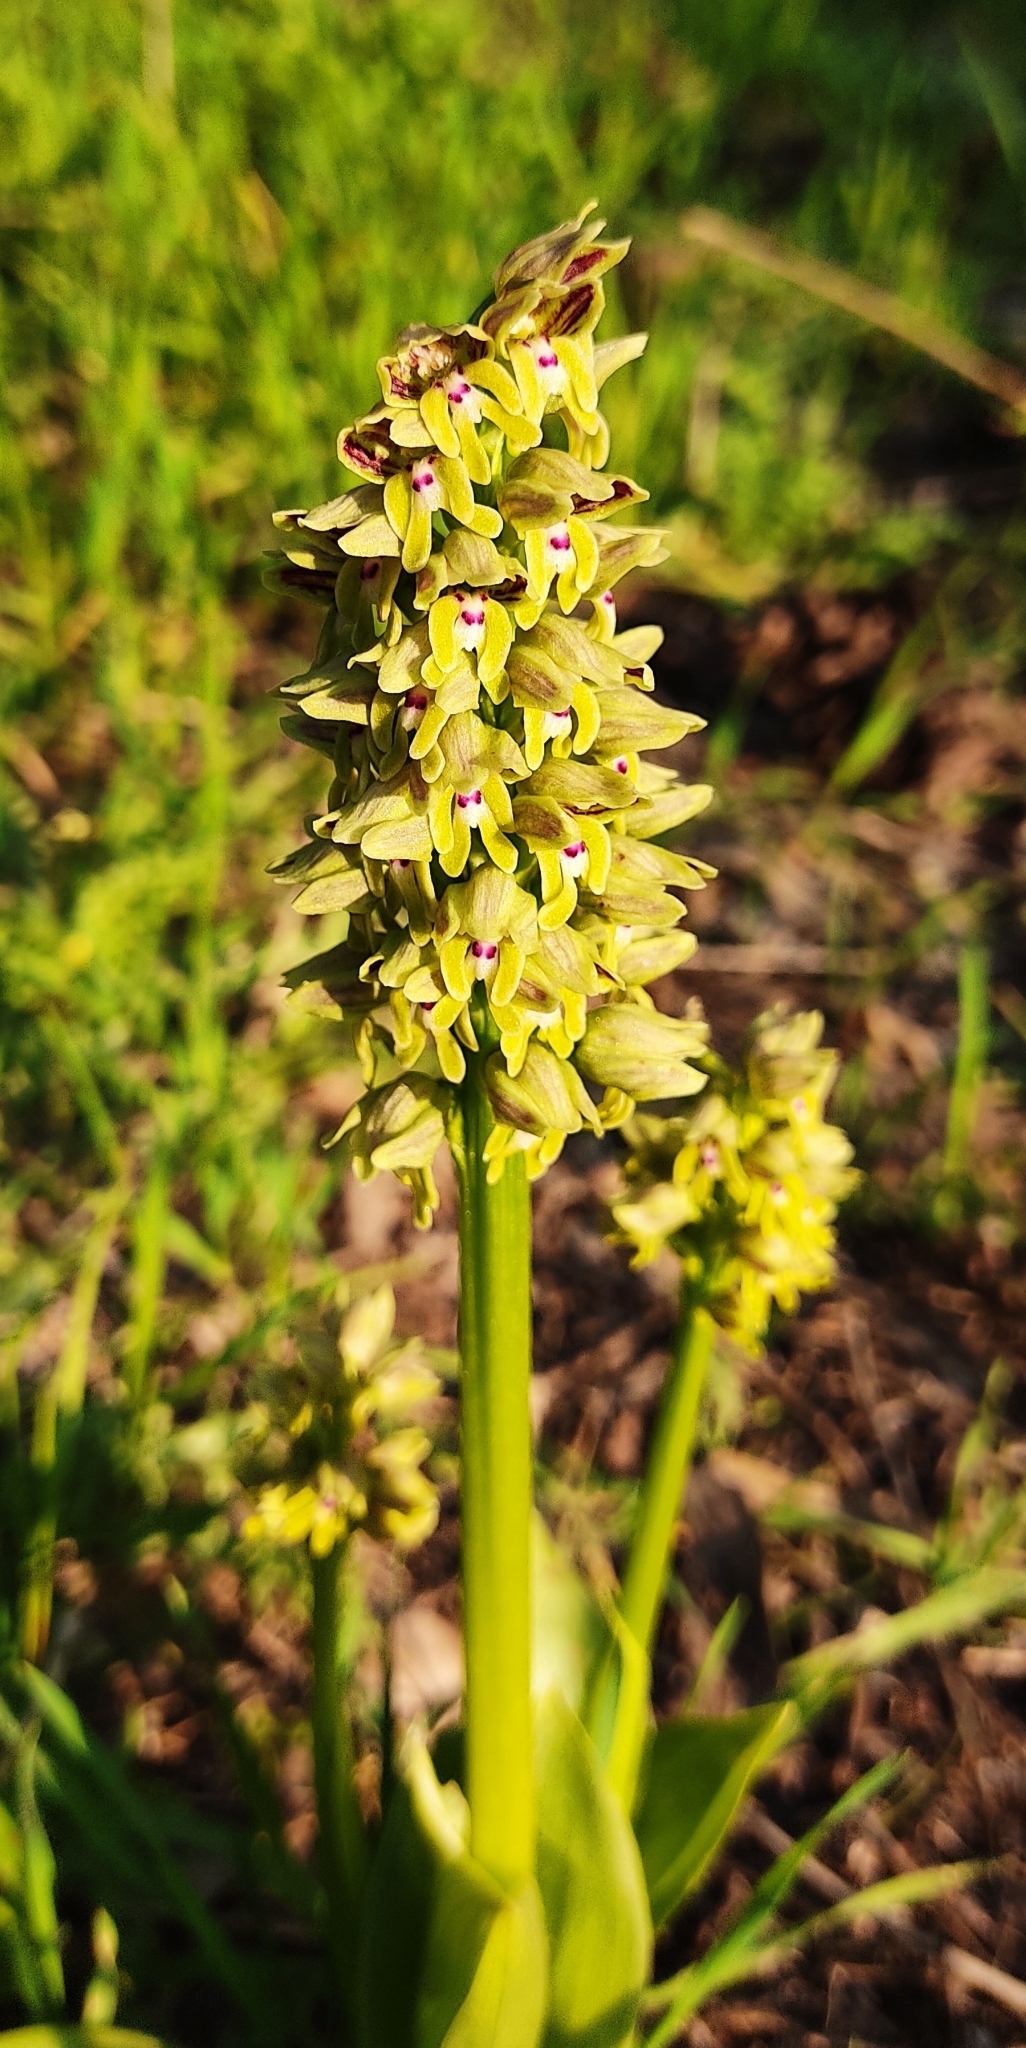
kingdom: Plantae
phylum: Tracheophyta
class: Liliopsida
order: Asparagales
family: Orchidaceae
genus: Orchis
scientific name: Orchis galilaea
